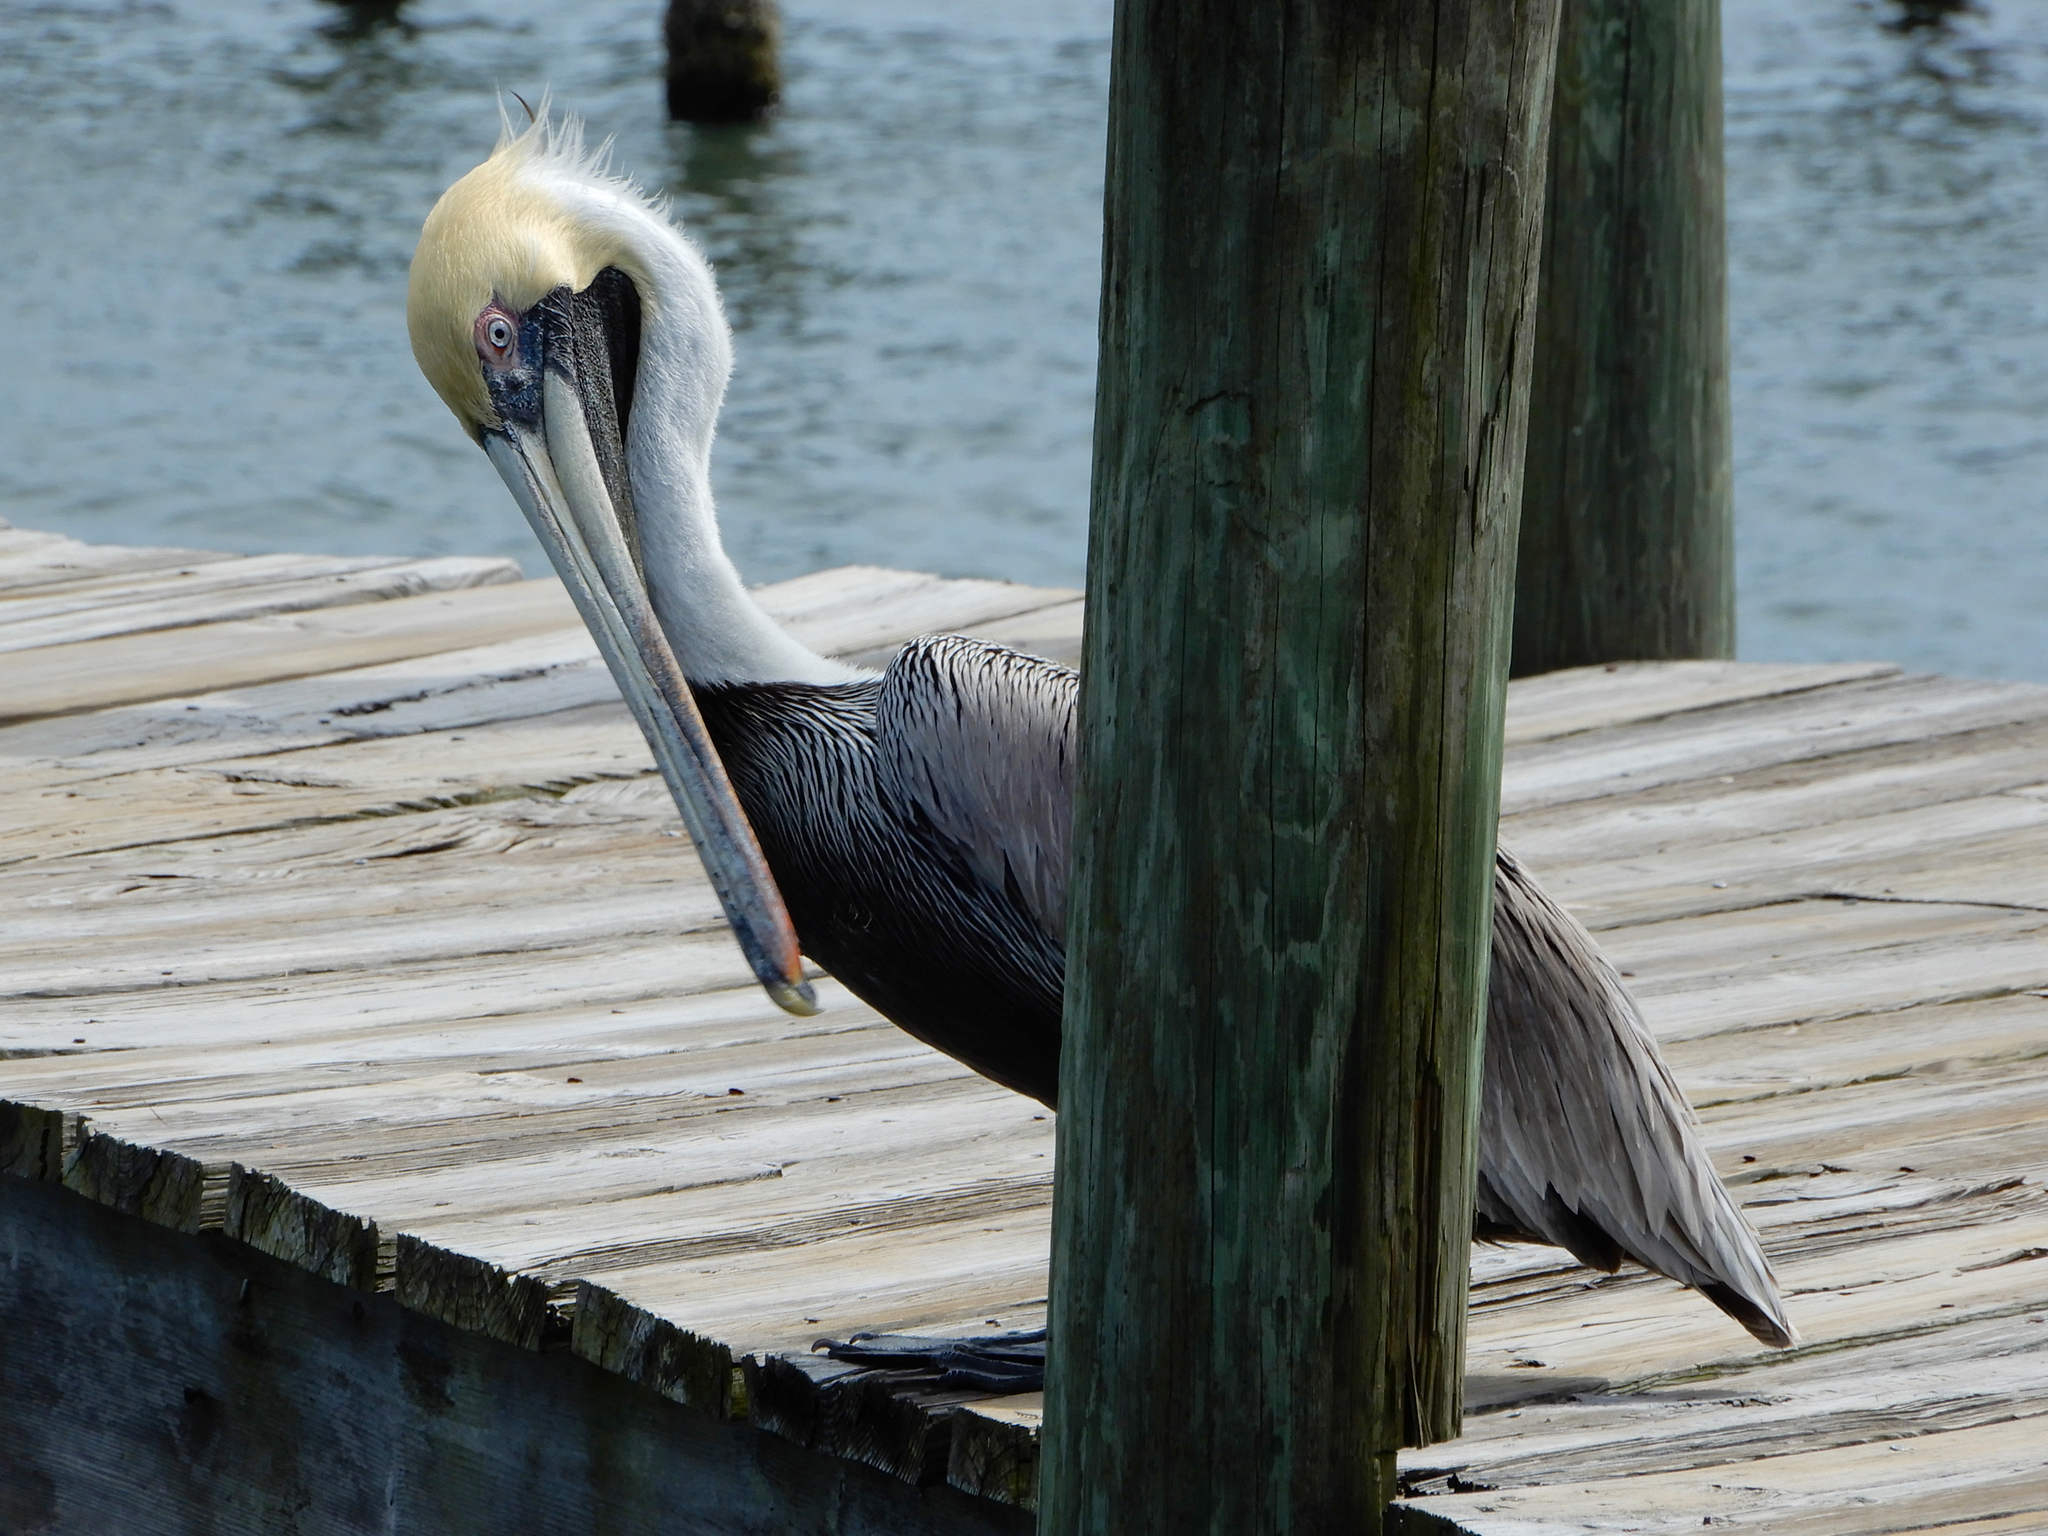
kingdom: Animalia
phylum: Chordata
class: Aves
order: Pelecaniformes
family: Pelecanidae
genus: Pelecanus
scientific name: Pelecanus occidentalis
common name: Brown pelican
